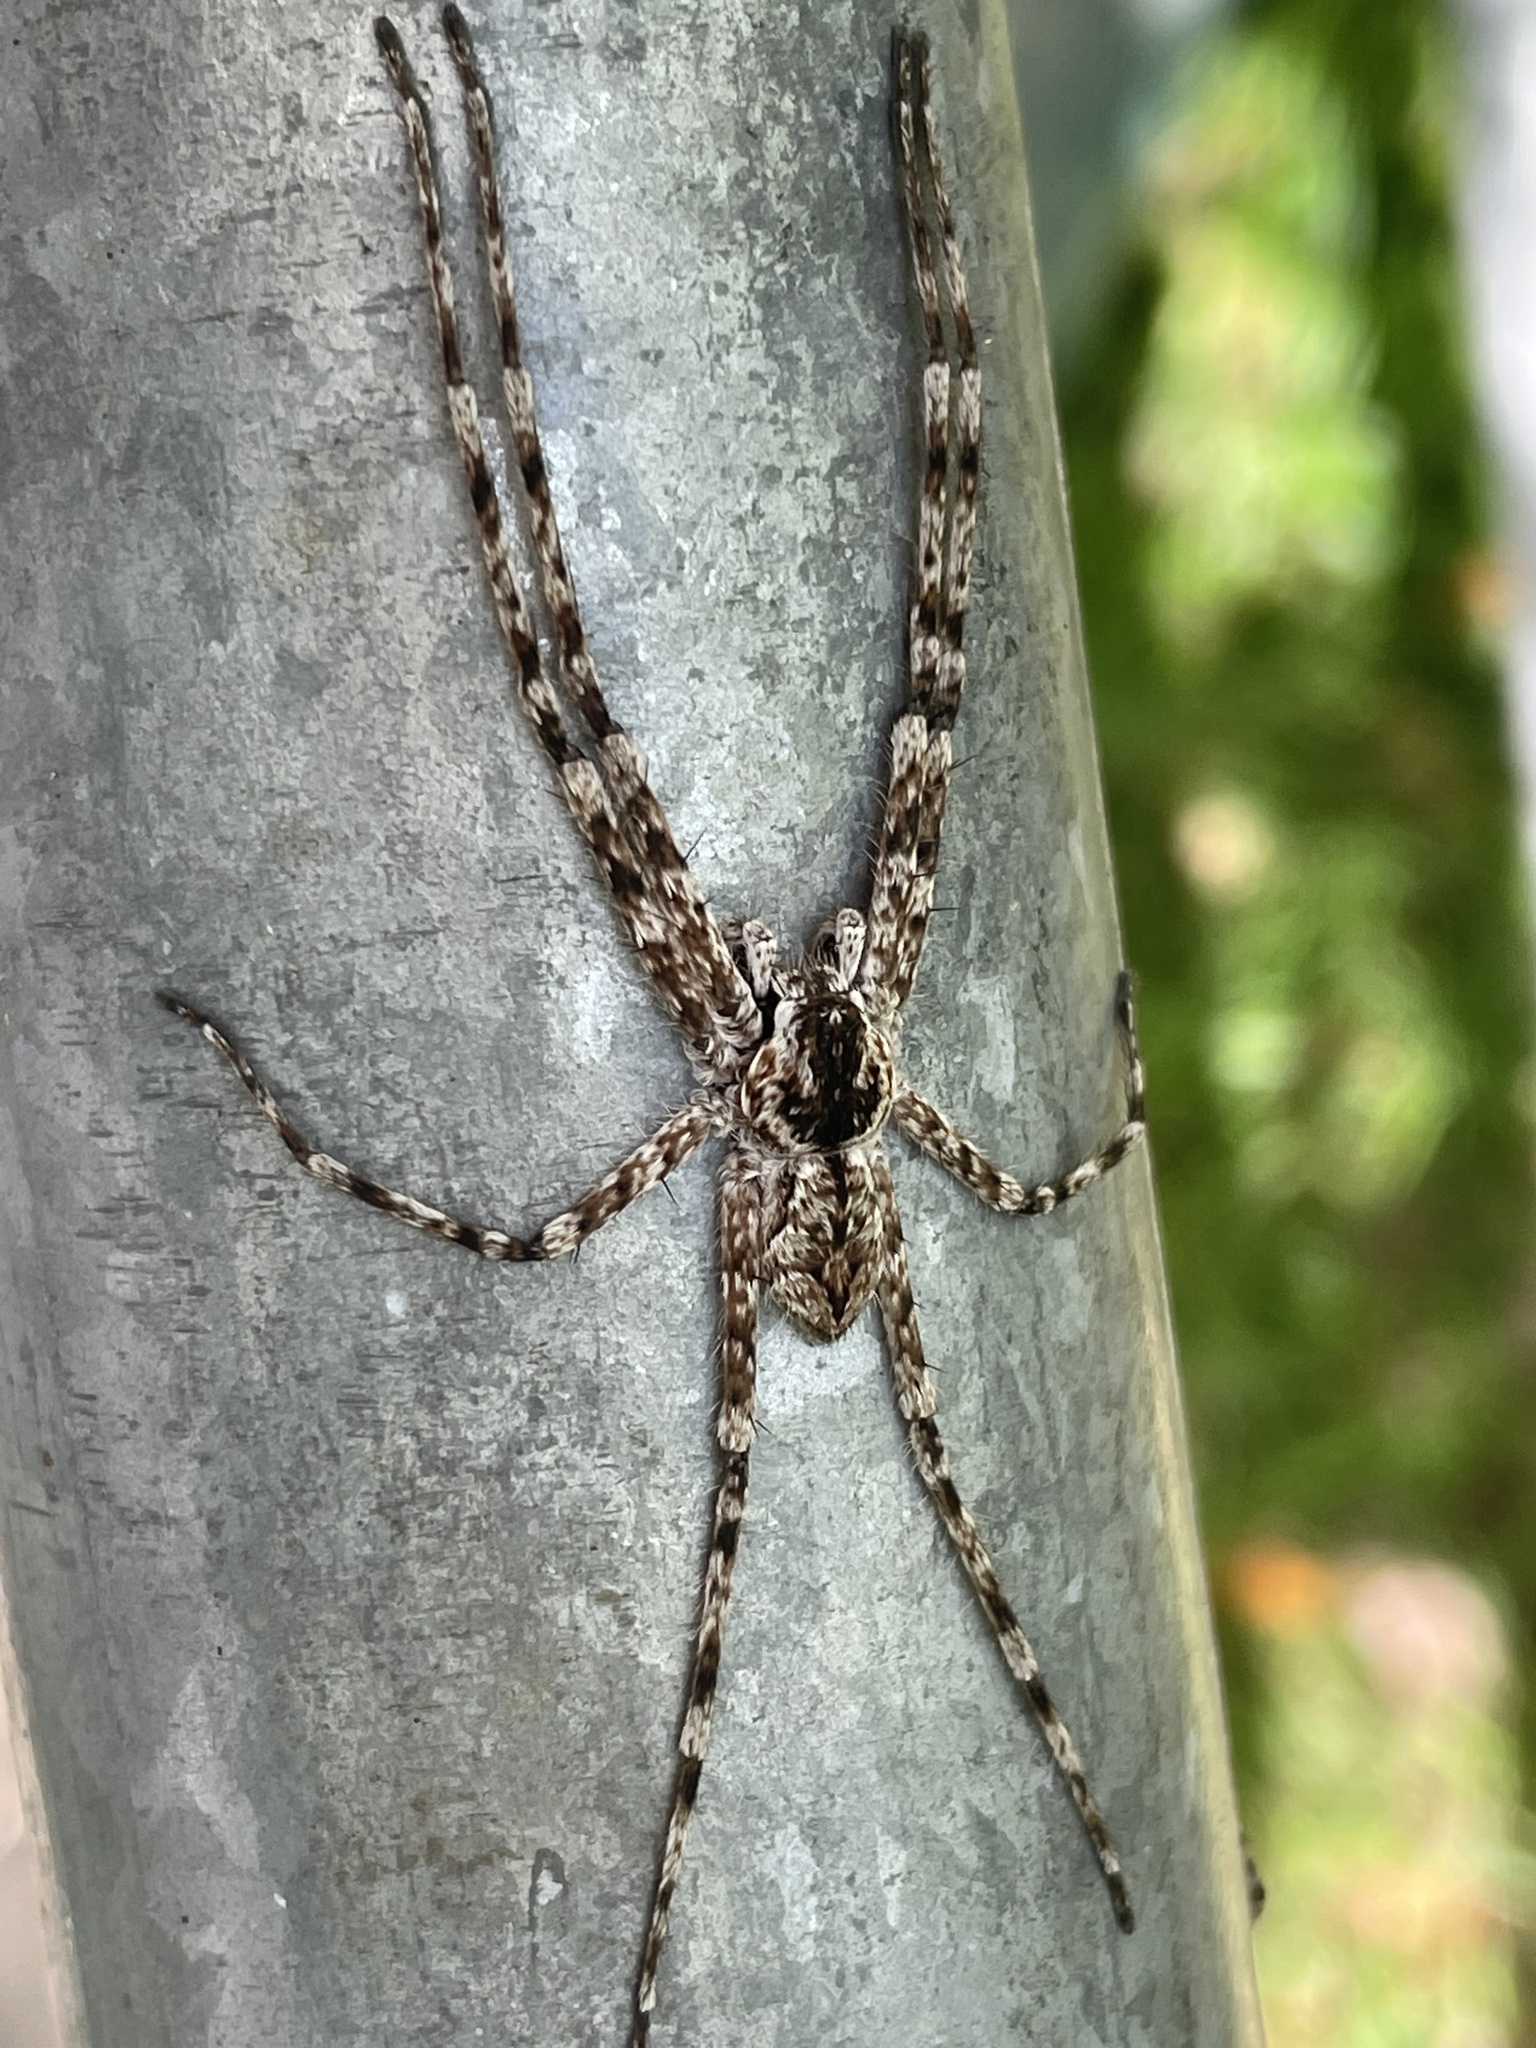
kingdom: Animalia
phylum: Arthropoda
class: Arachnida
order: Araneae
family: Sparassidae
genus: Pediana
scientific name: Pediana regina
